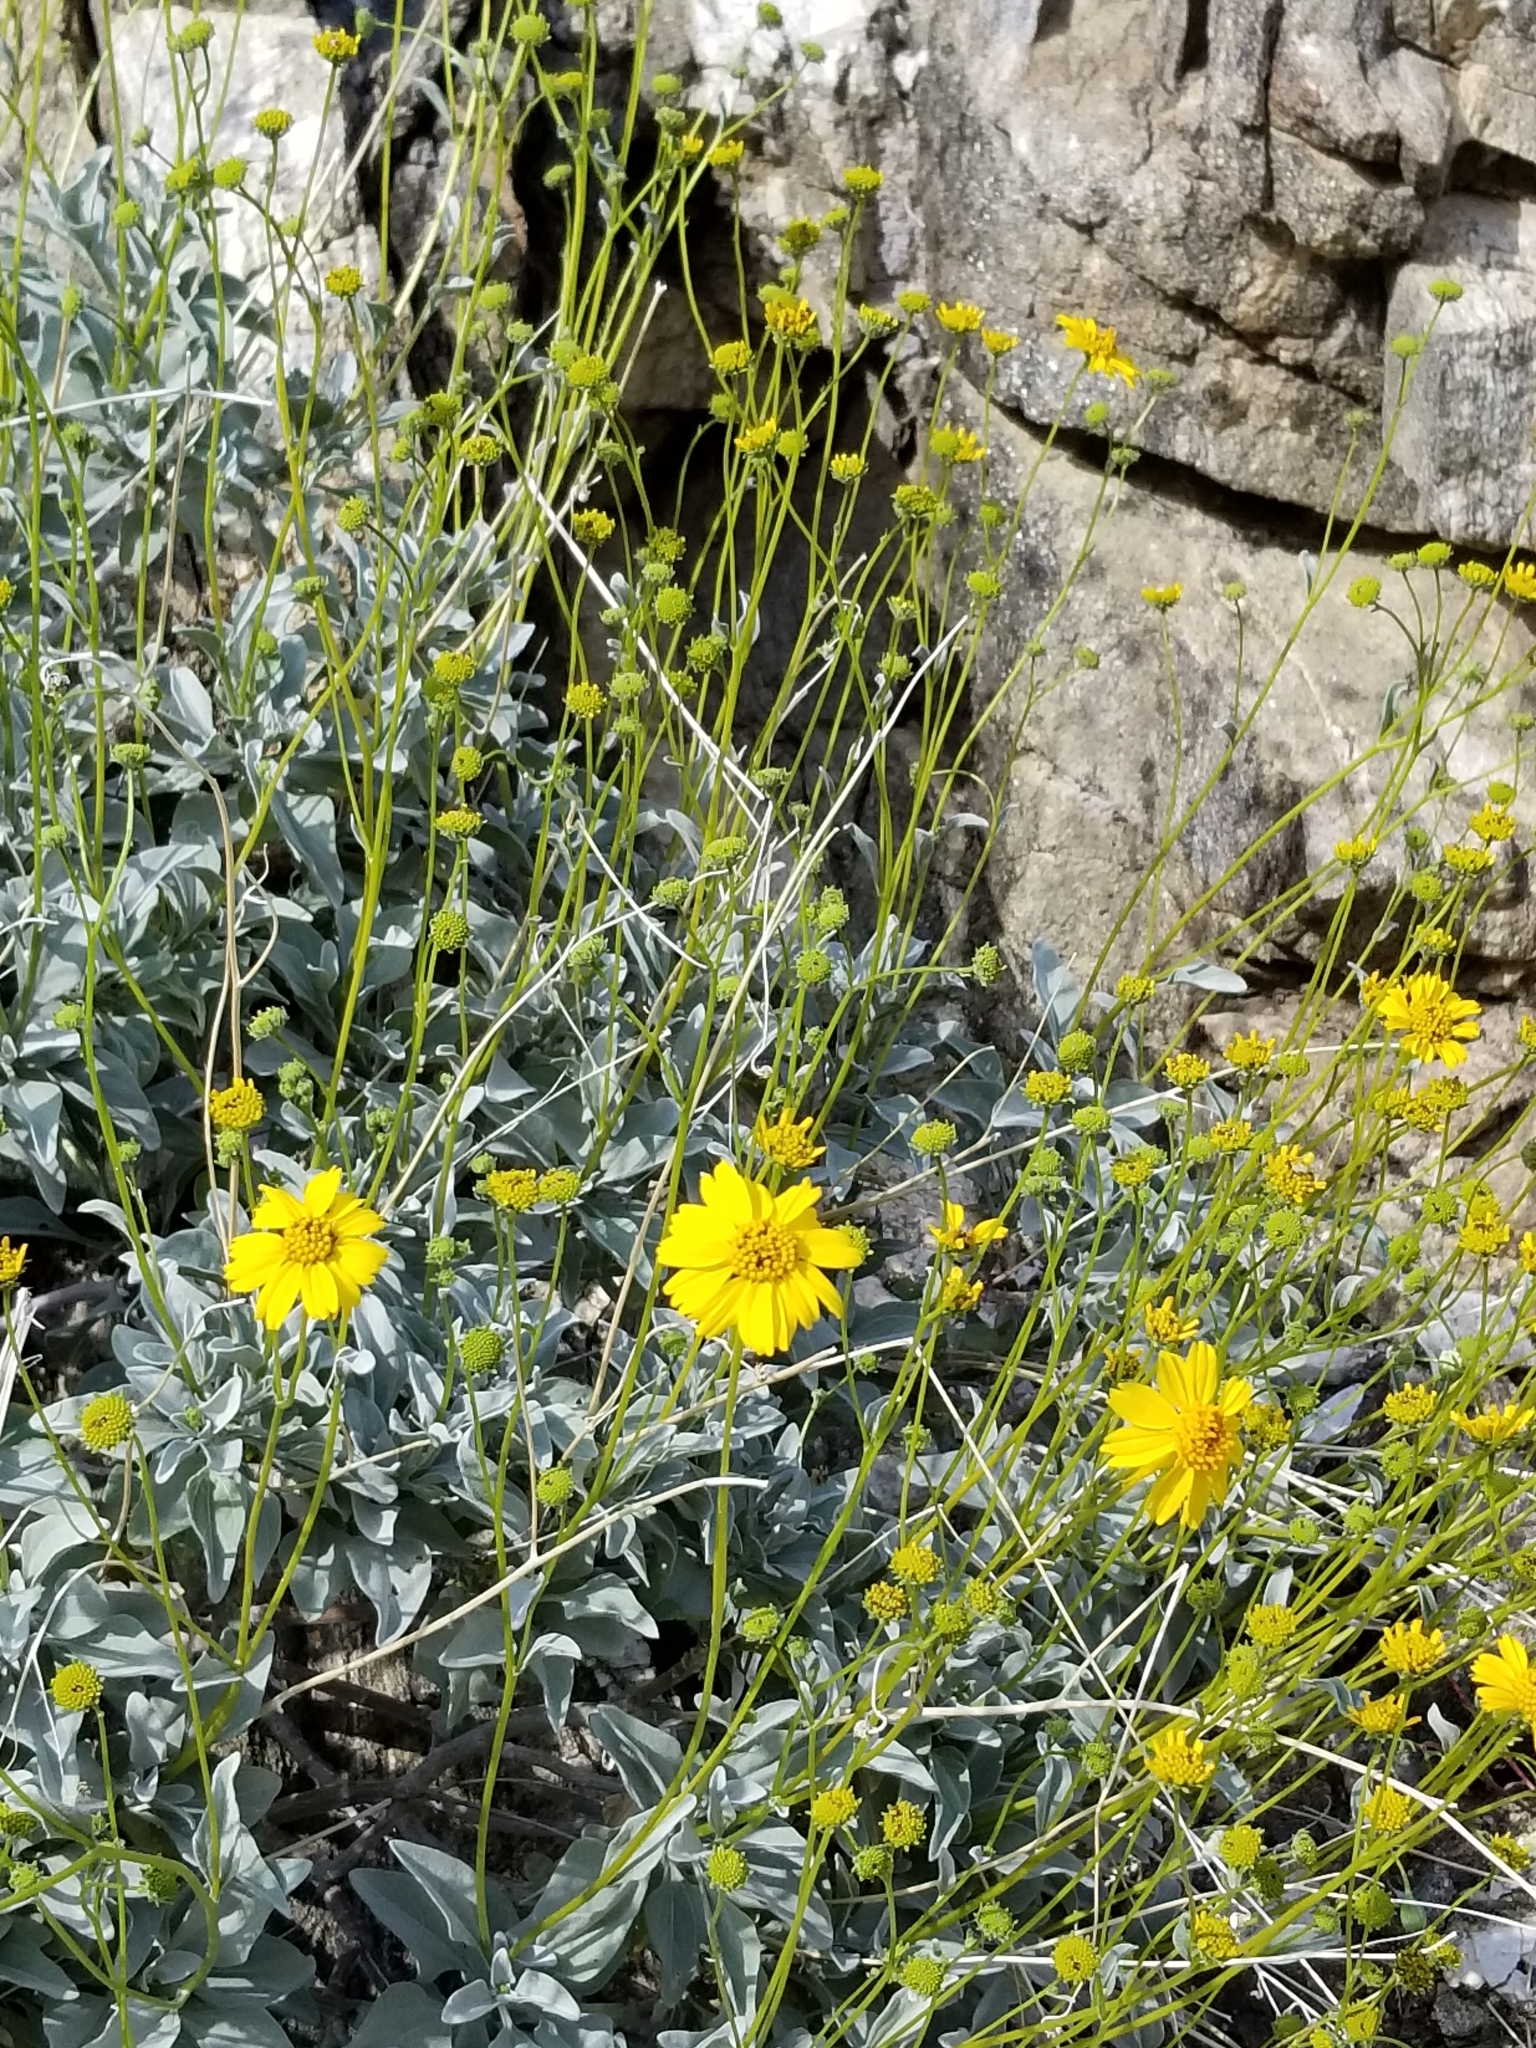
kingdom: Plantae
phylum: Tracheophyta
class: Magnoliopsida
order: Asterales
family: Asteraceae
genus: Encelia
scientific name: Encelia farinosa
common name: Brittlebush
